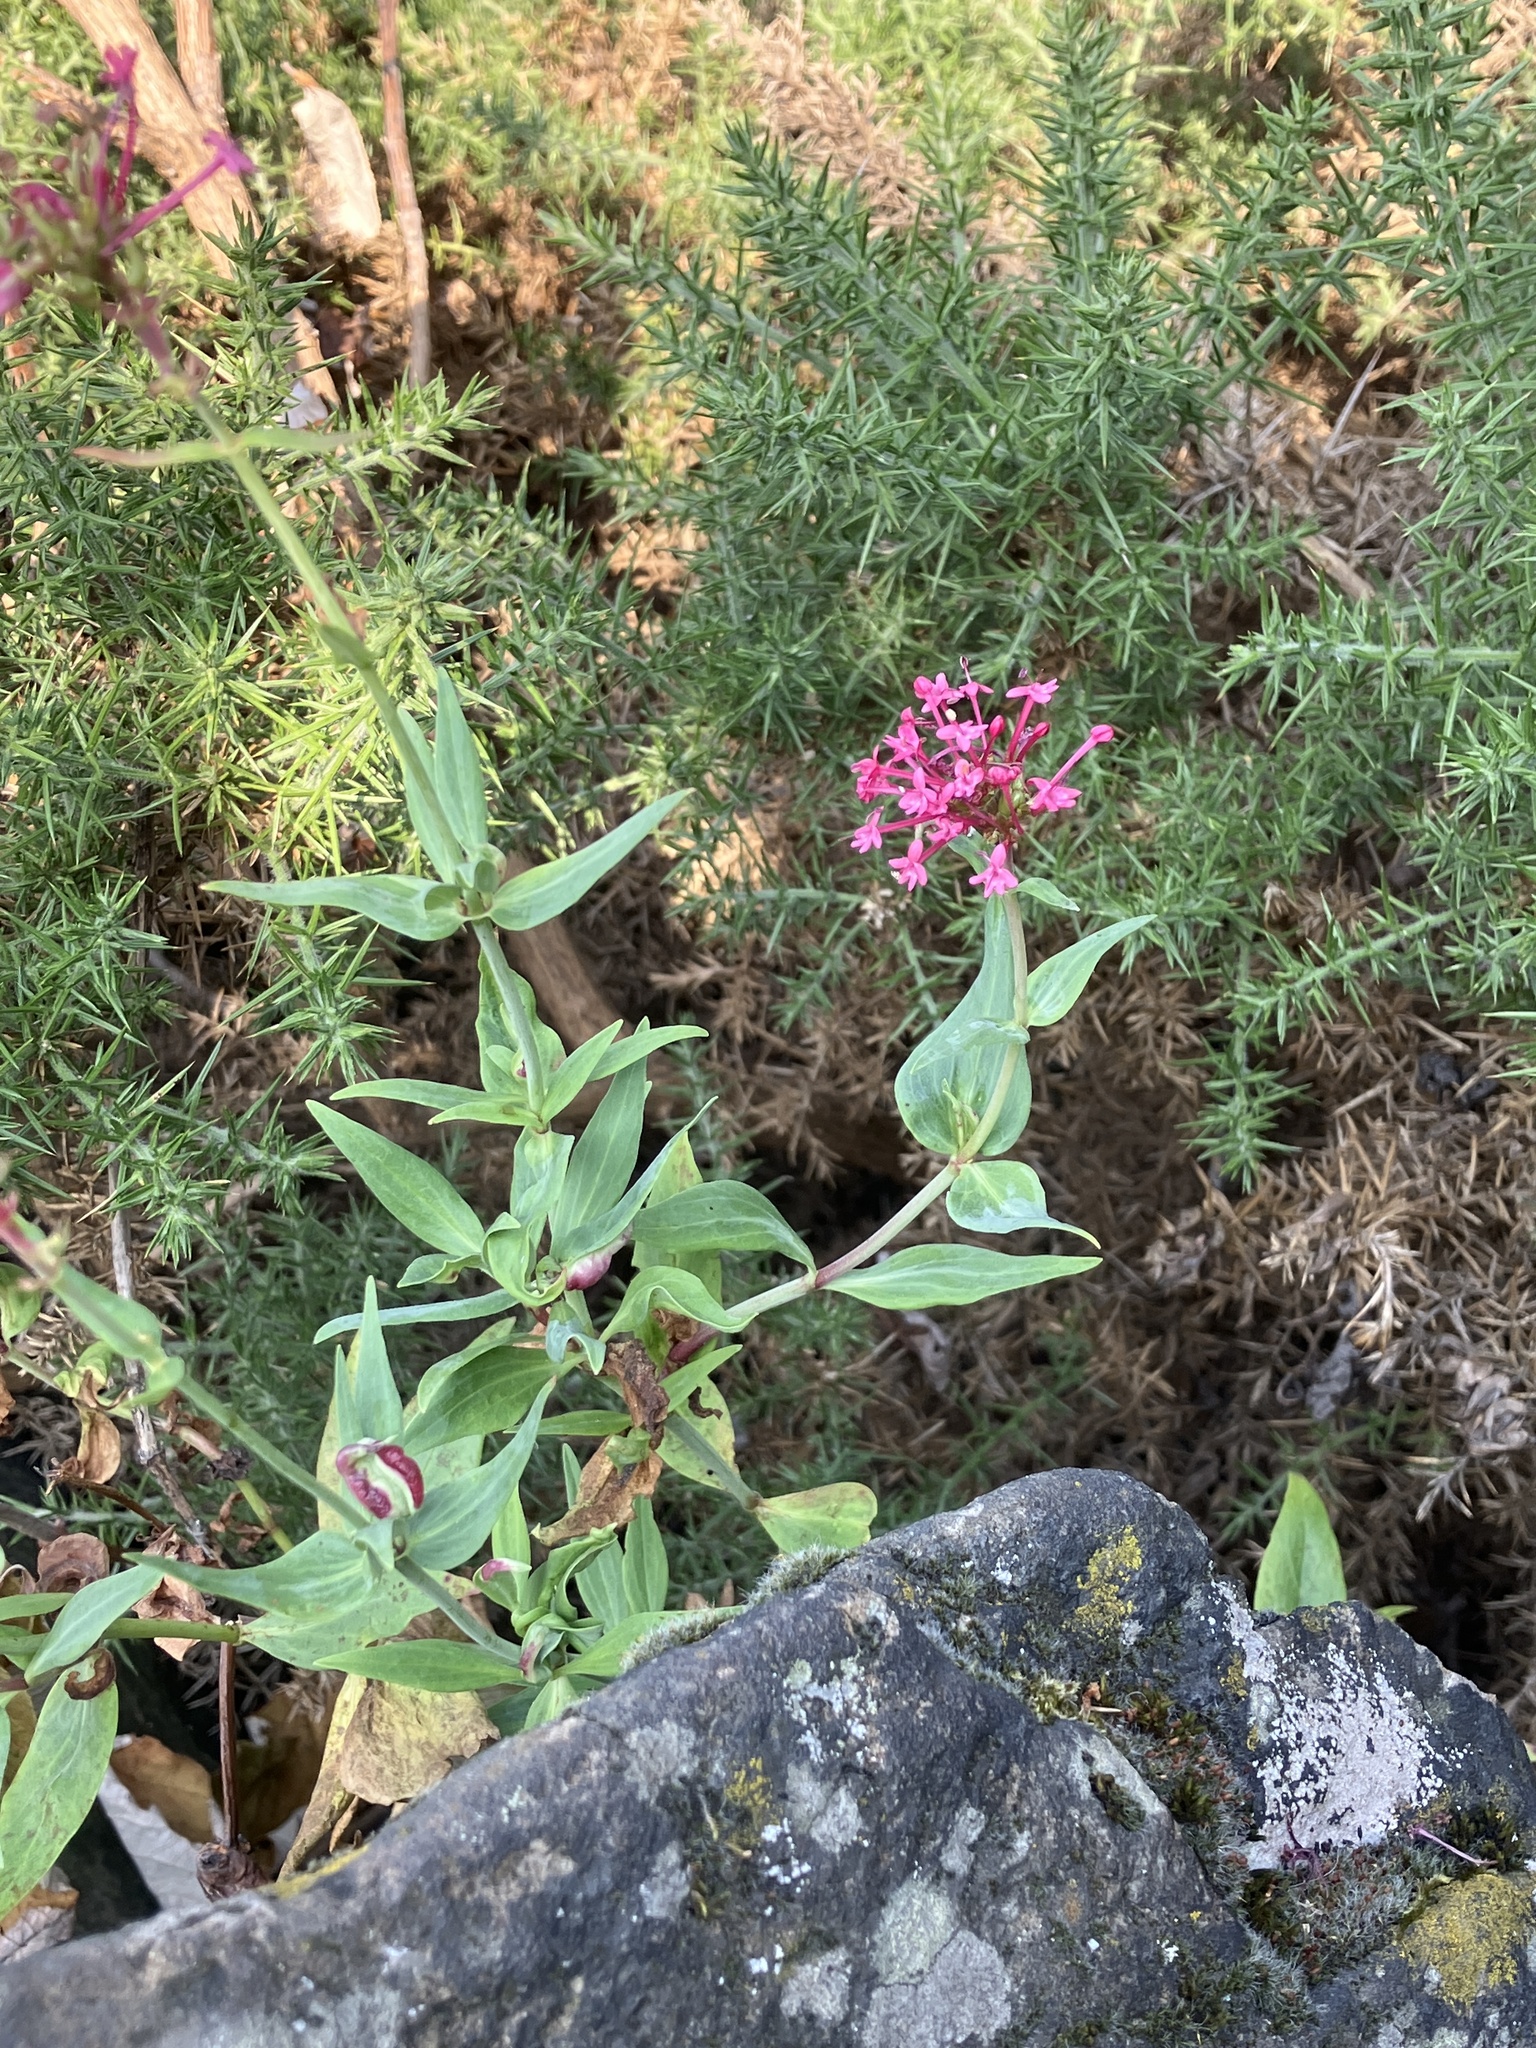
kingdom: Plantae
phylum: Tracheophyta
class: Magnoliopsida
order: Dipsacales
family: Caprifoliaceae
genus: Centranthus
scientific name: Centranthus ruber
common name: Red valerian
